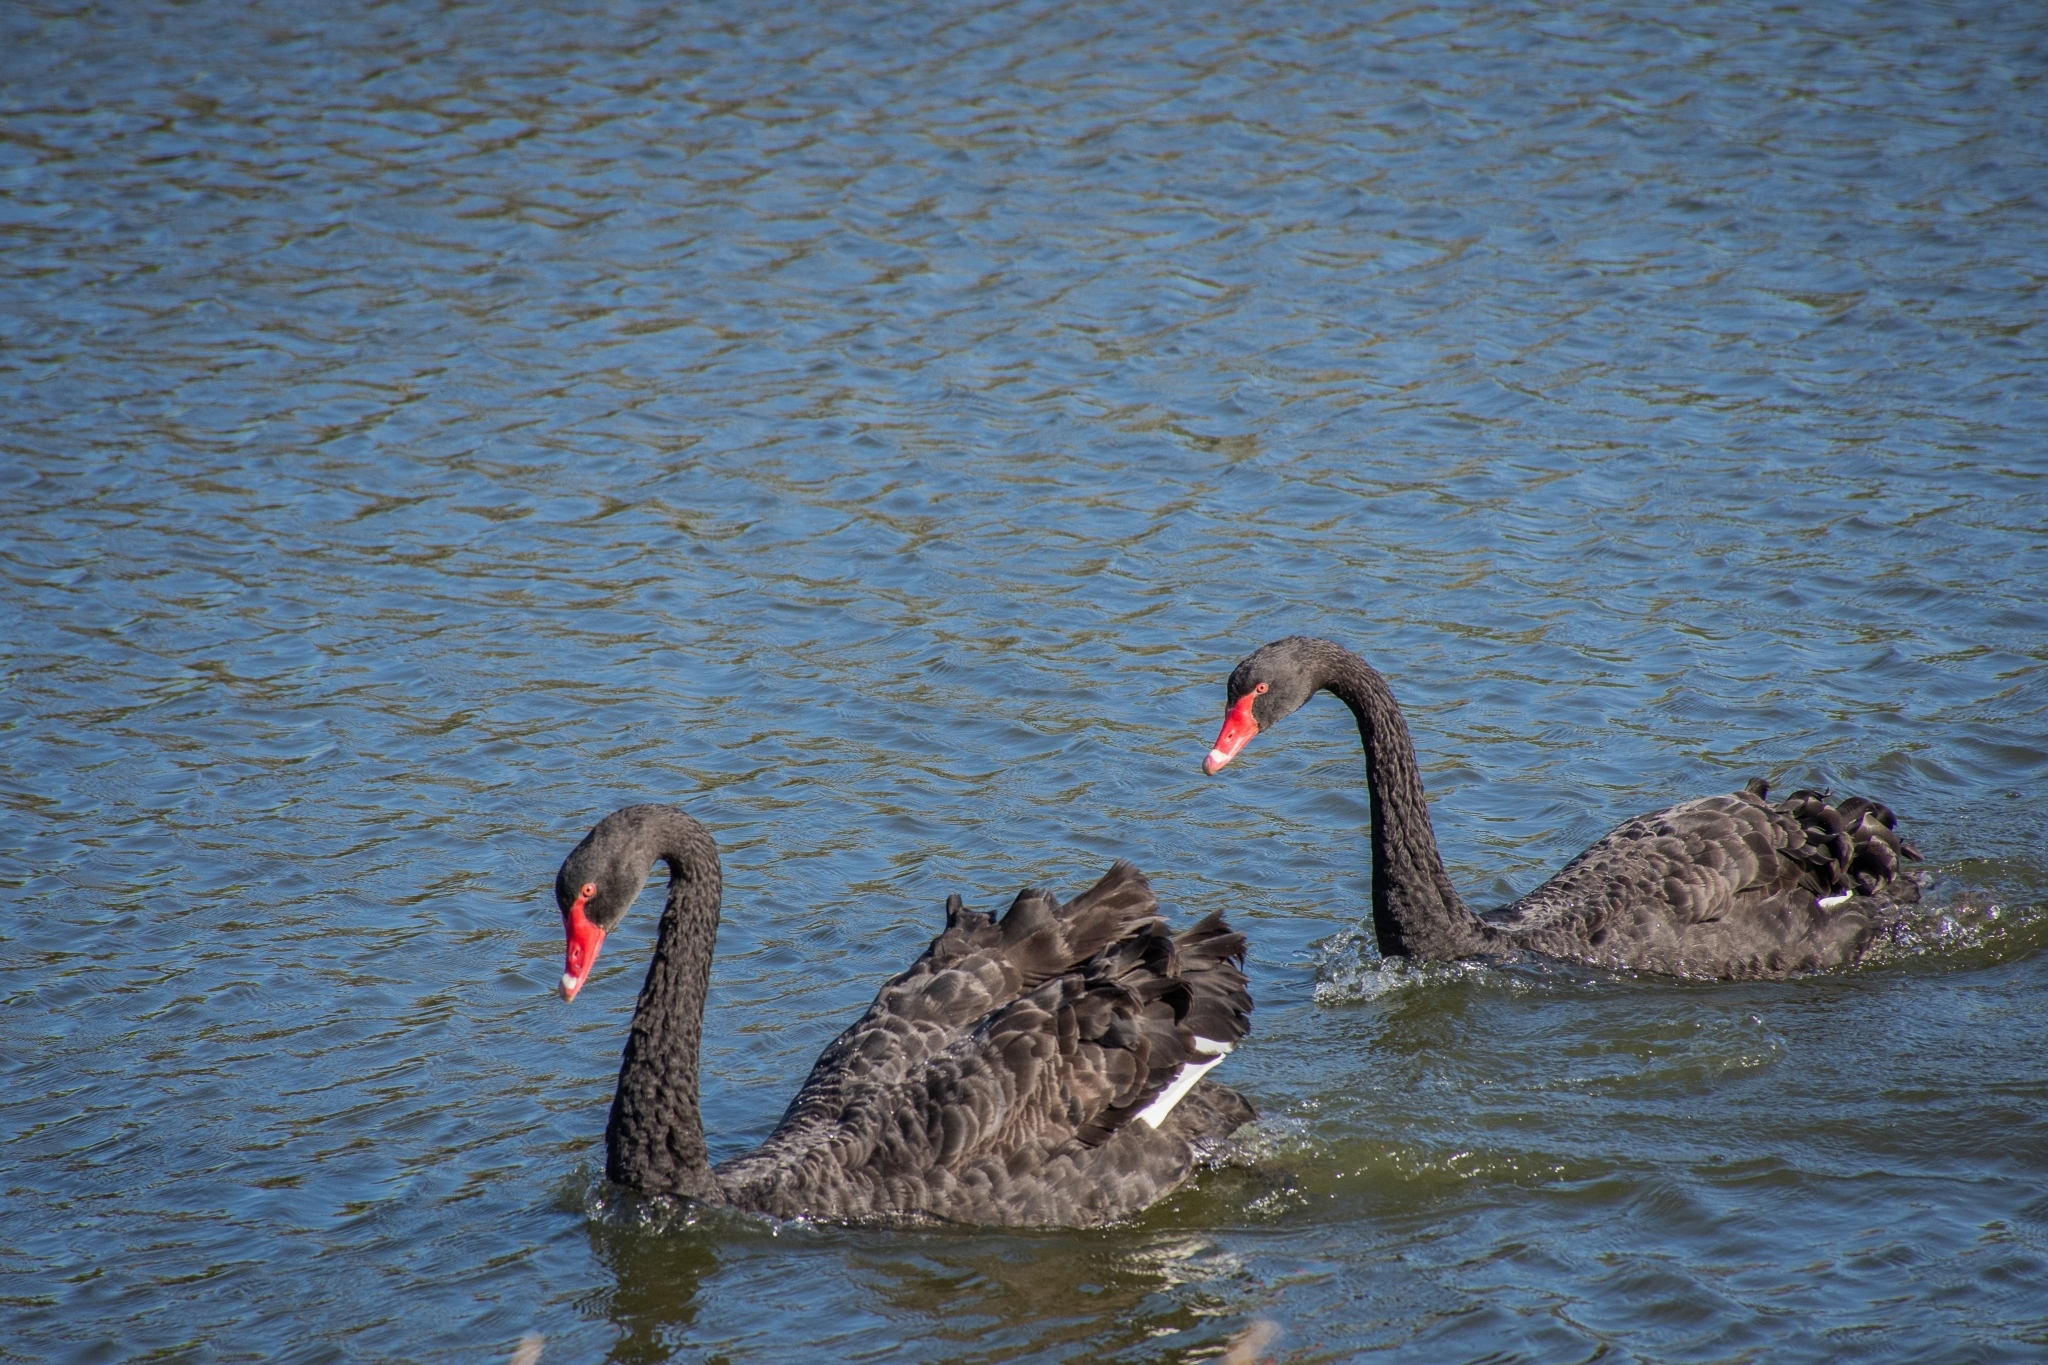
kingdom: Animalia
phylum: Chordata
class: Aves
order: Anseriformes
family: Anatidae
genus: Cygnus
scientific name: Cygnus atratus
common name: Black swan
